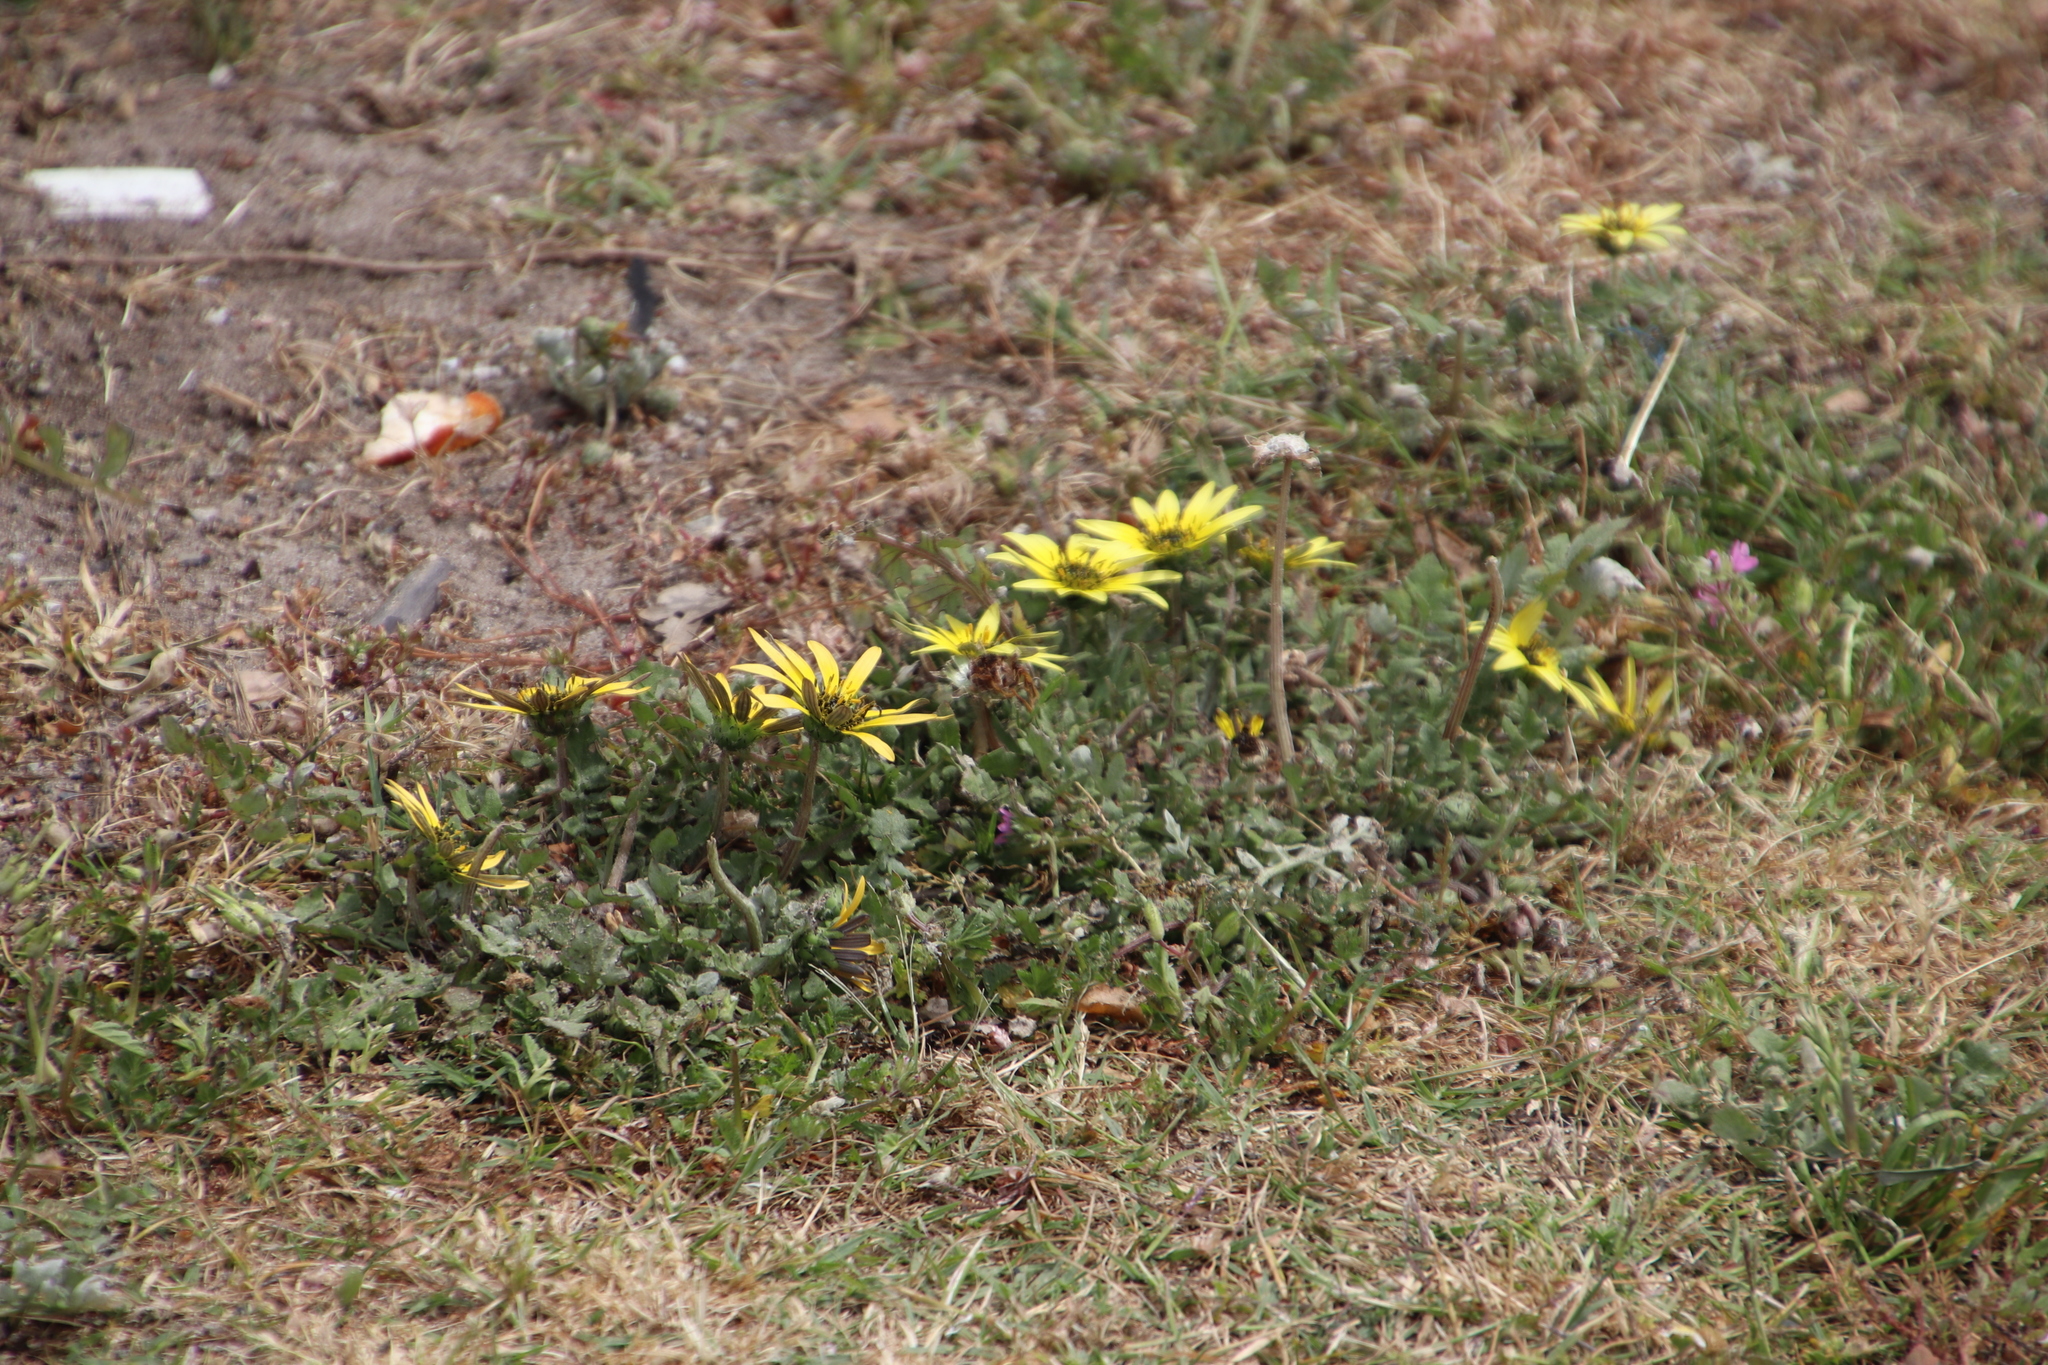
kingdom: Plantae
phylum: Tracheophyta
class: Magnoliopsida
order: Asterales
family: Asteraceae
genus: Arctotheca
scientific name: Arctotheca calendula
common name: Capeweed
